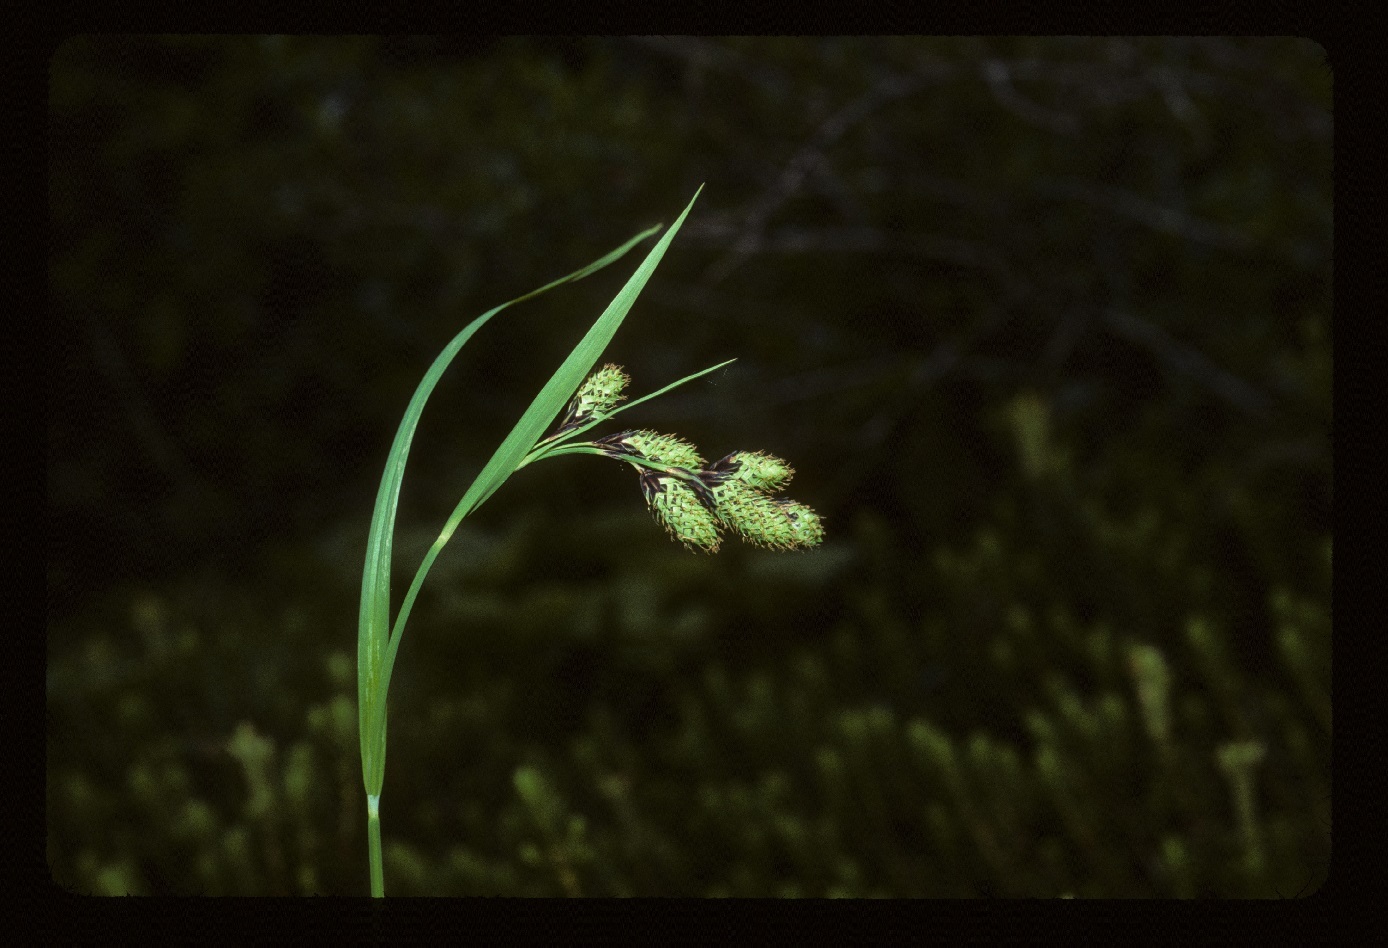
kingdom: Plantae
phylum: Tracheophyta
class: Liliopsida
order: Poales
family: Cyperaceae
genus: Carex
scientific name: Carex mertensii
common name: Mertens' sedge
